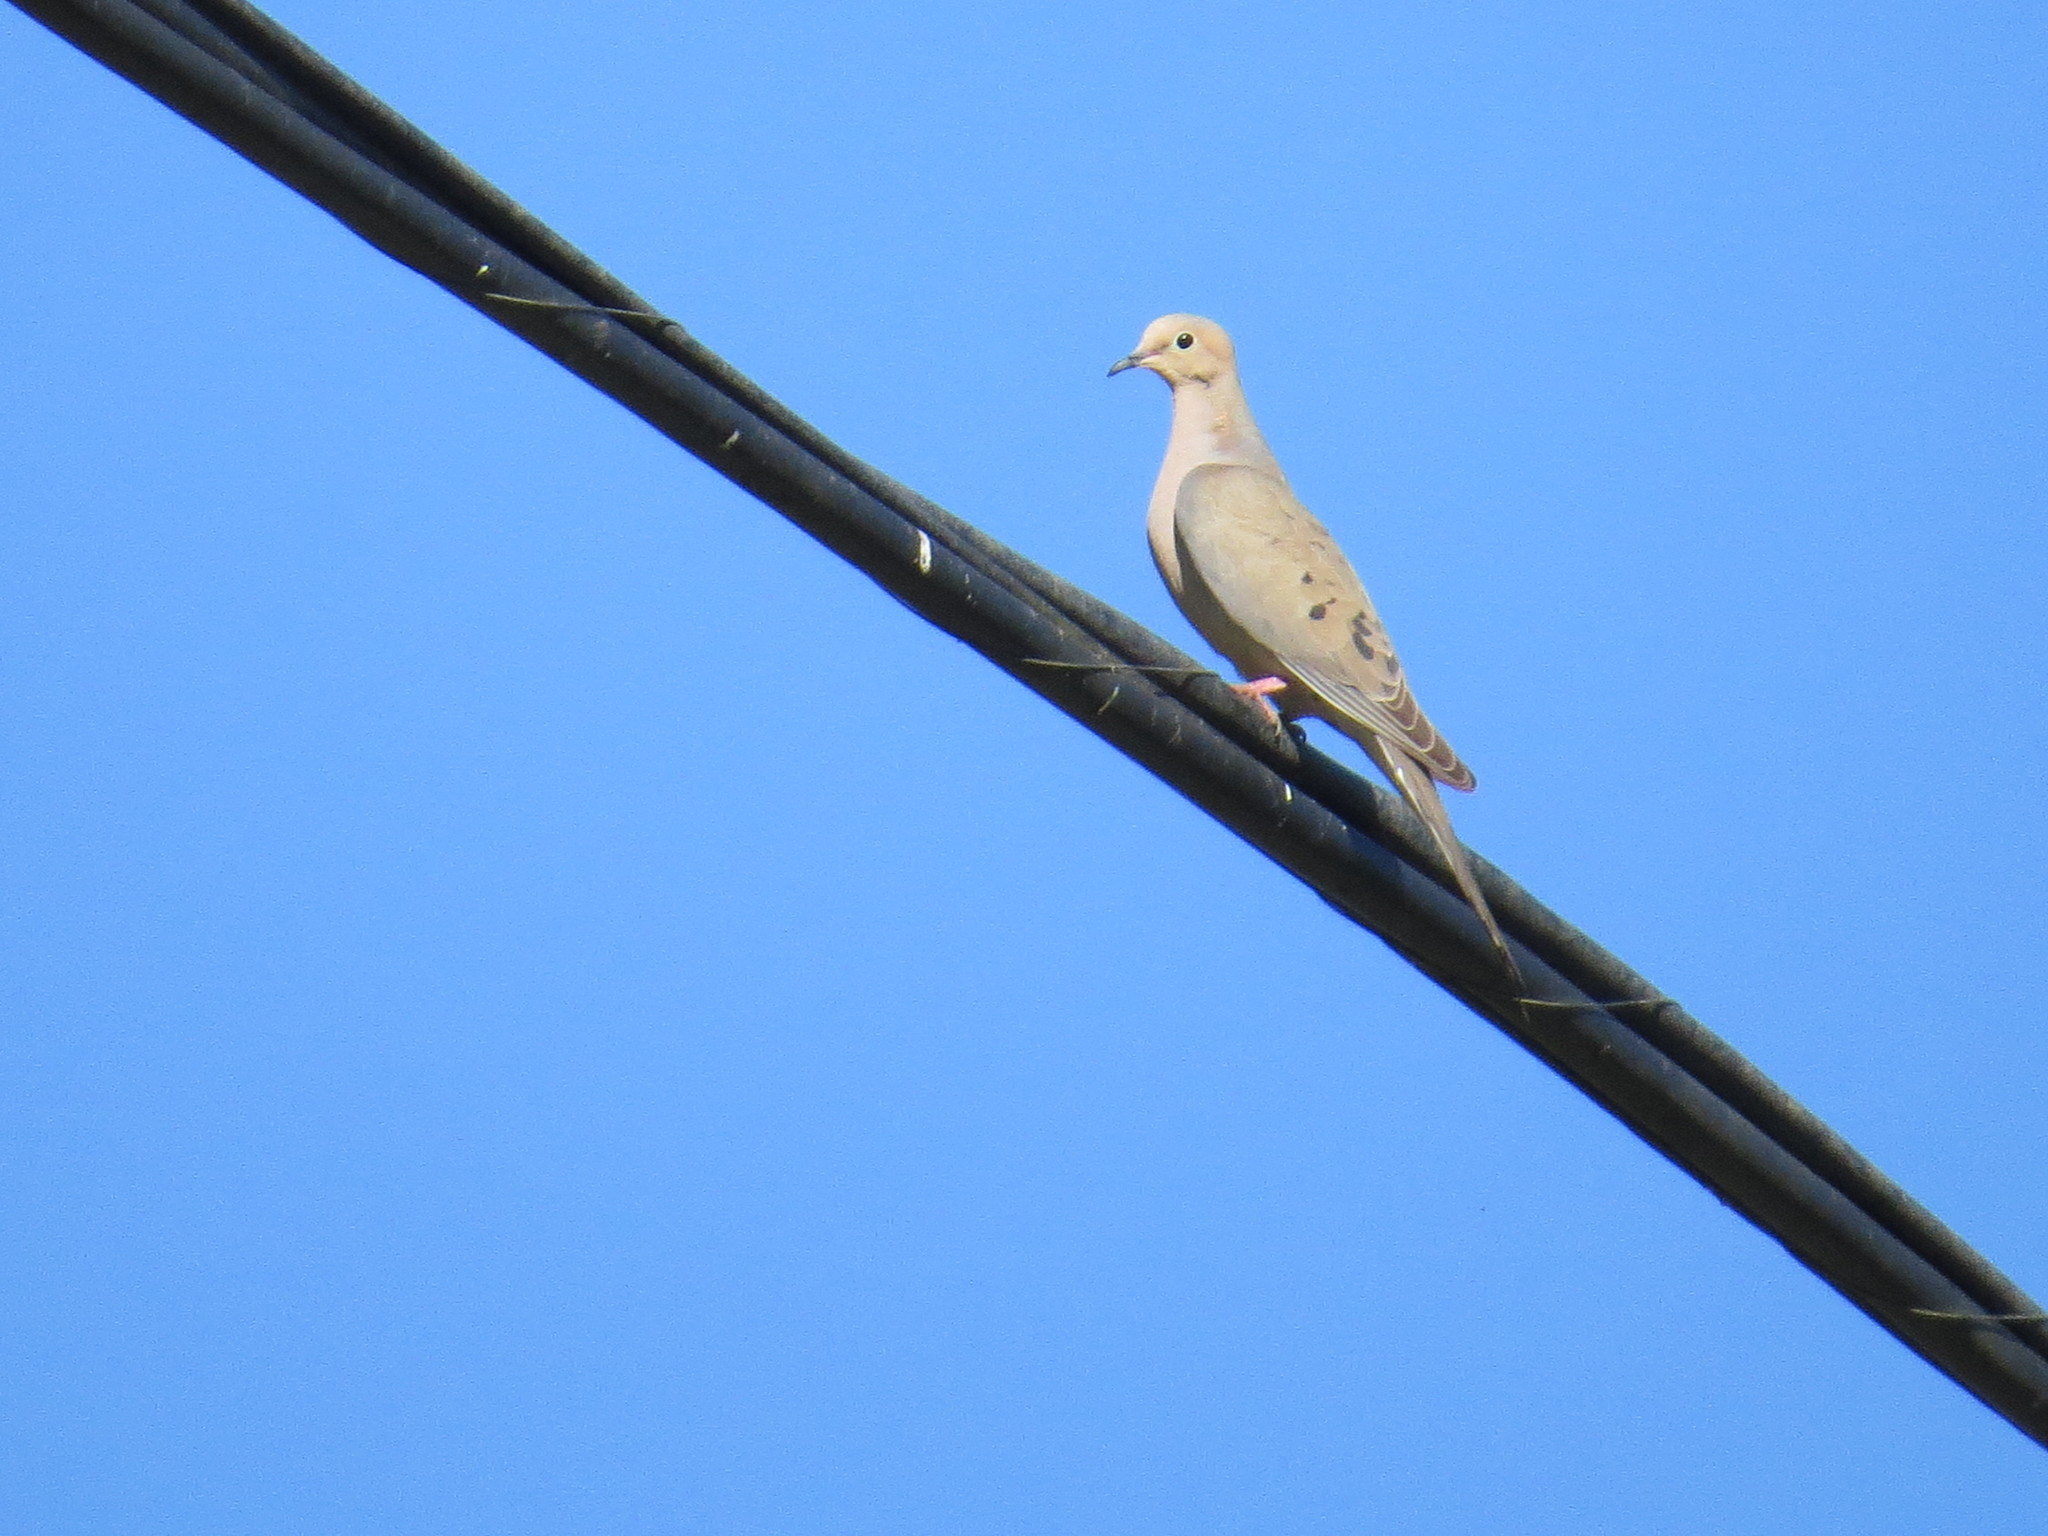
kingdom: Animalia
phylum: Chordata
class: Aves
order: Columbiformes
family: Columbidae
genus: Zenaida
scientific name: Zenaida macroura
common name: Mourning dove
